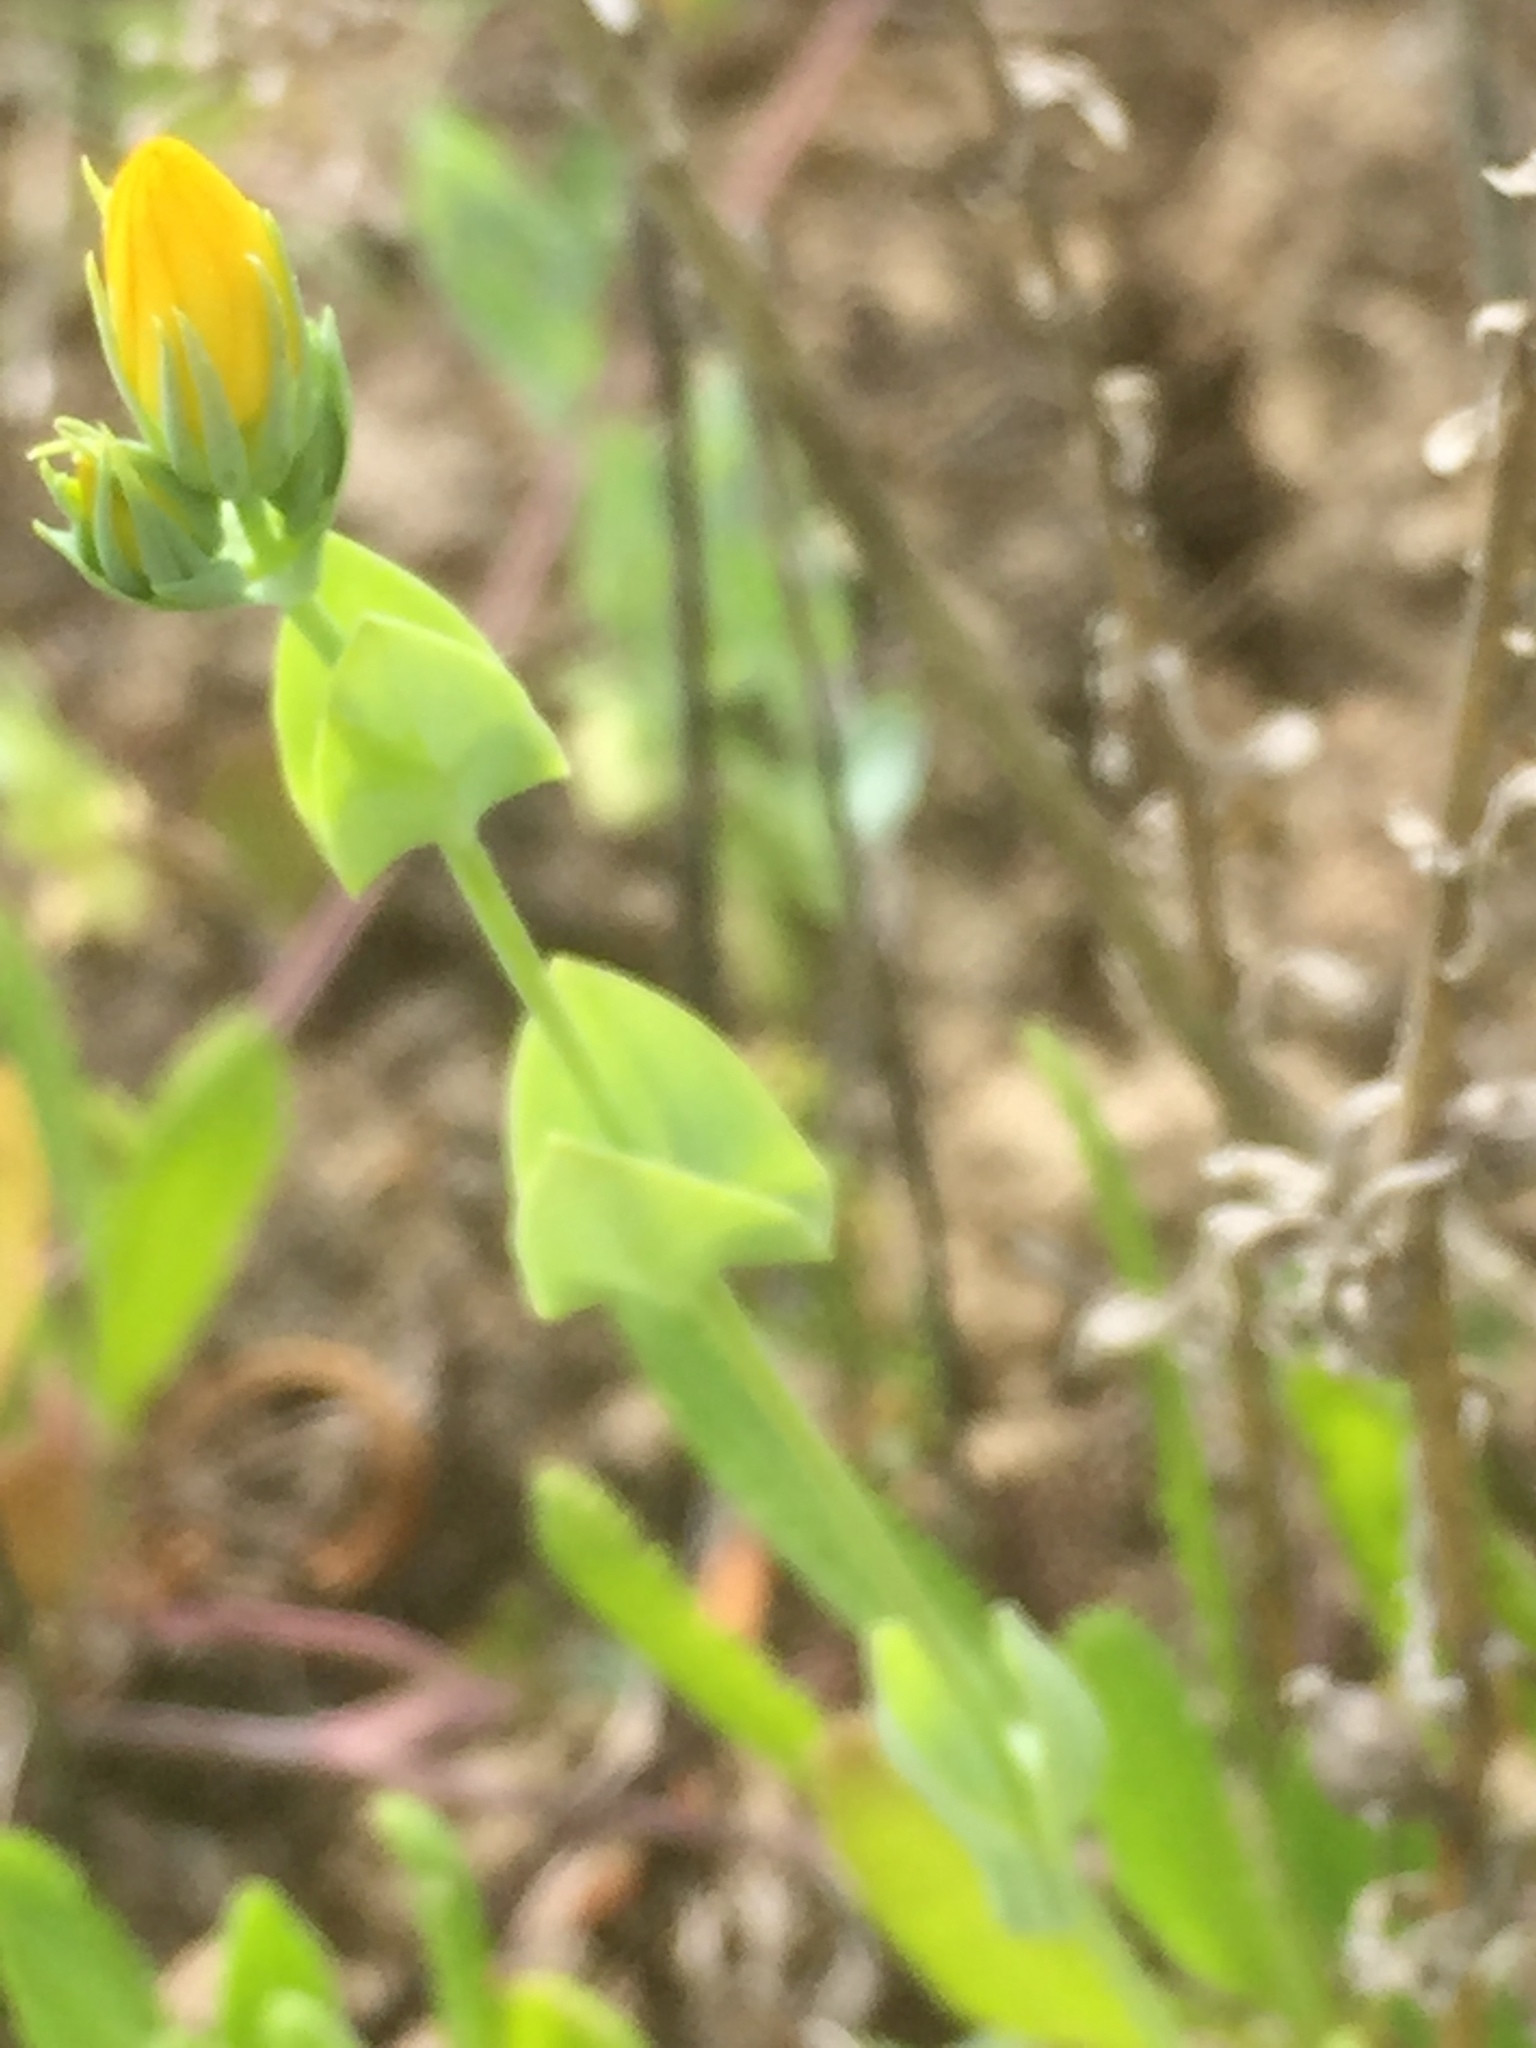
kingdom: Plantae
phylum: Tracheophyta
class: Magnoliopsida
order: Gentianales
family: Gentianaceae
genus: Blackstonia
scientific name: Blackstonia perfoliata
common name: Yellow-wort
